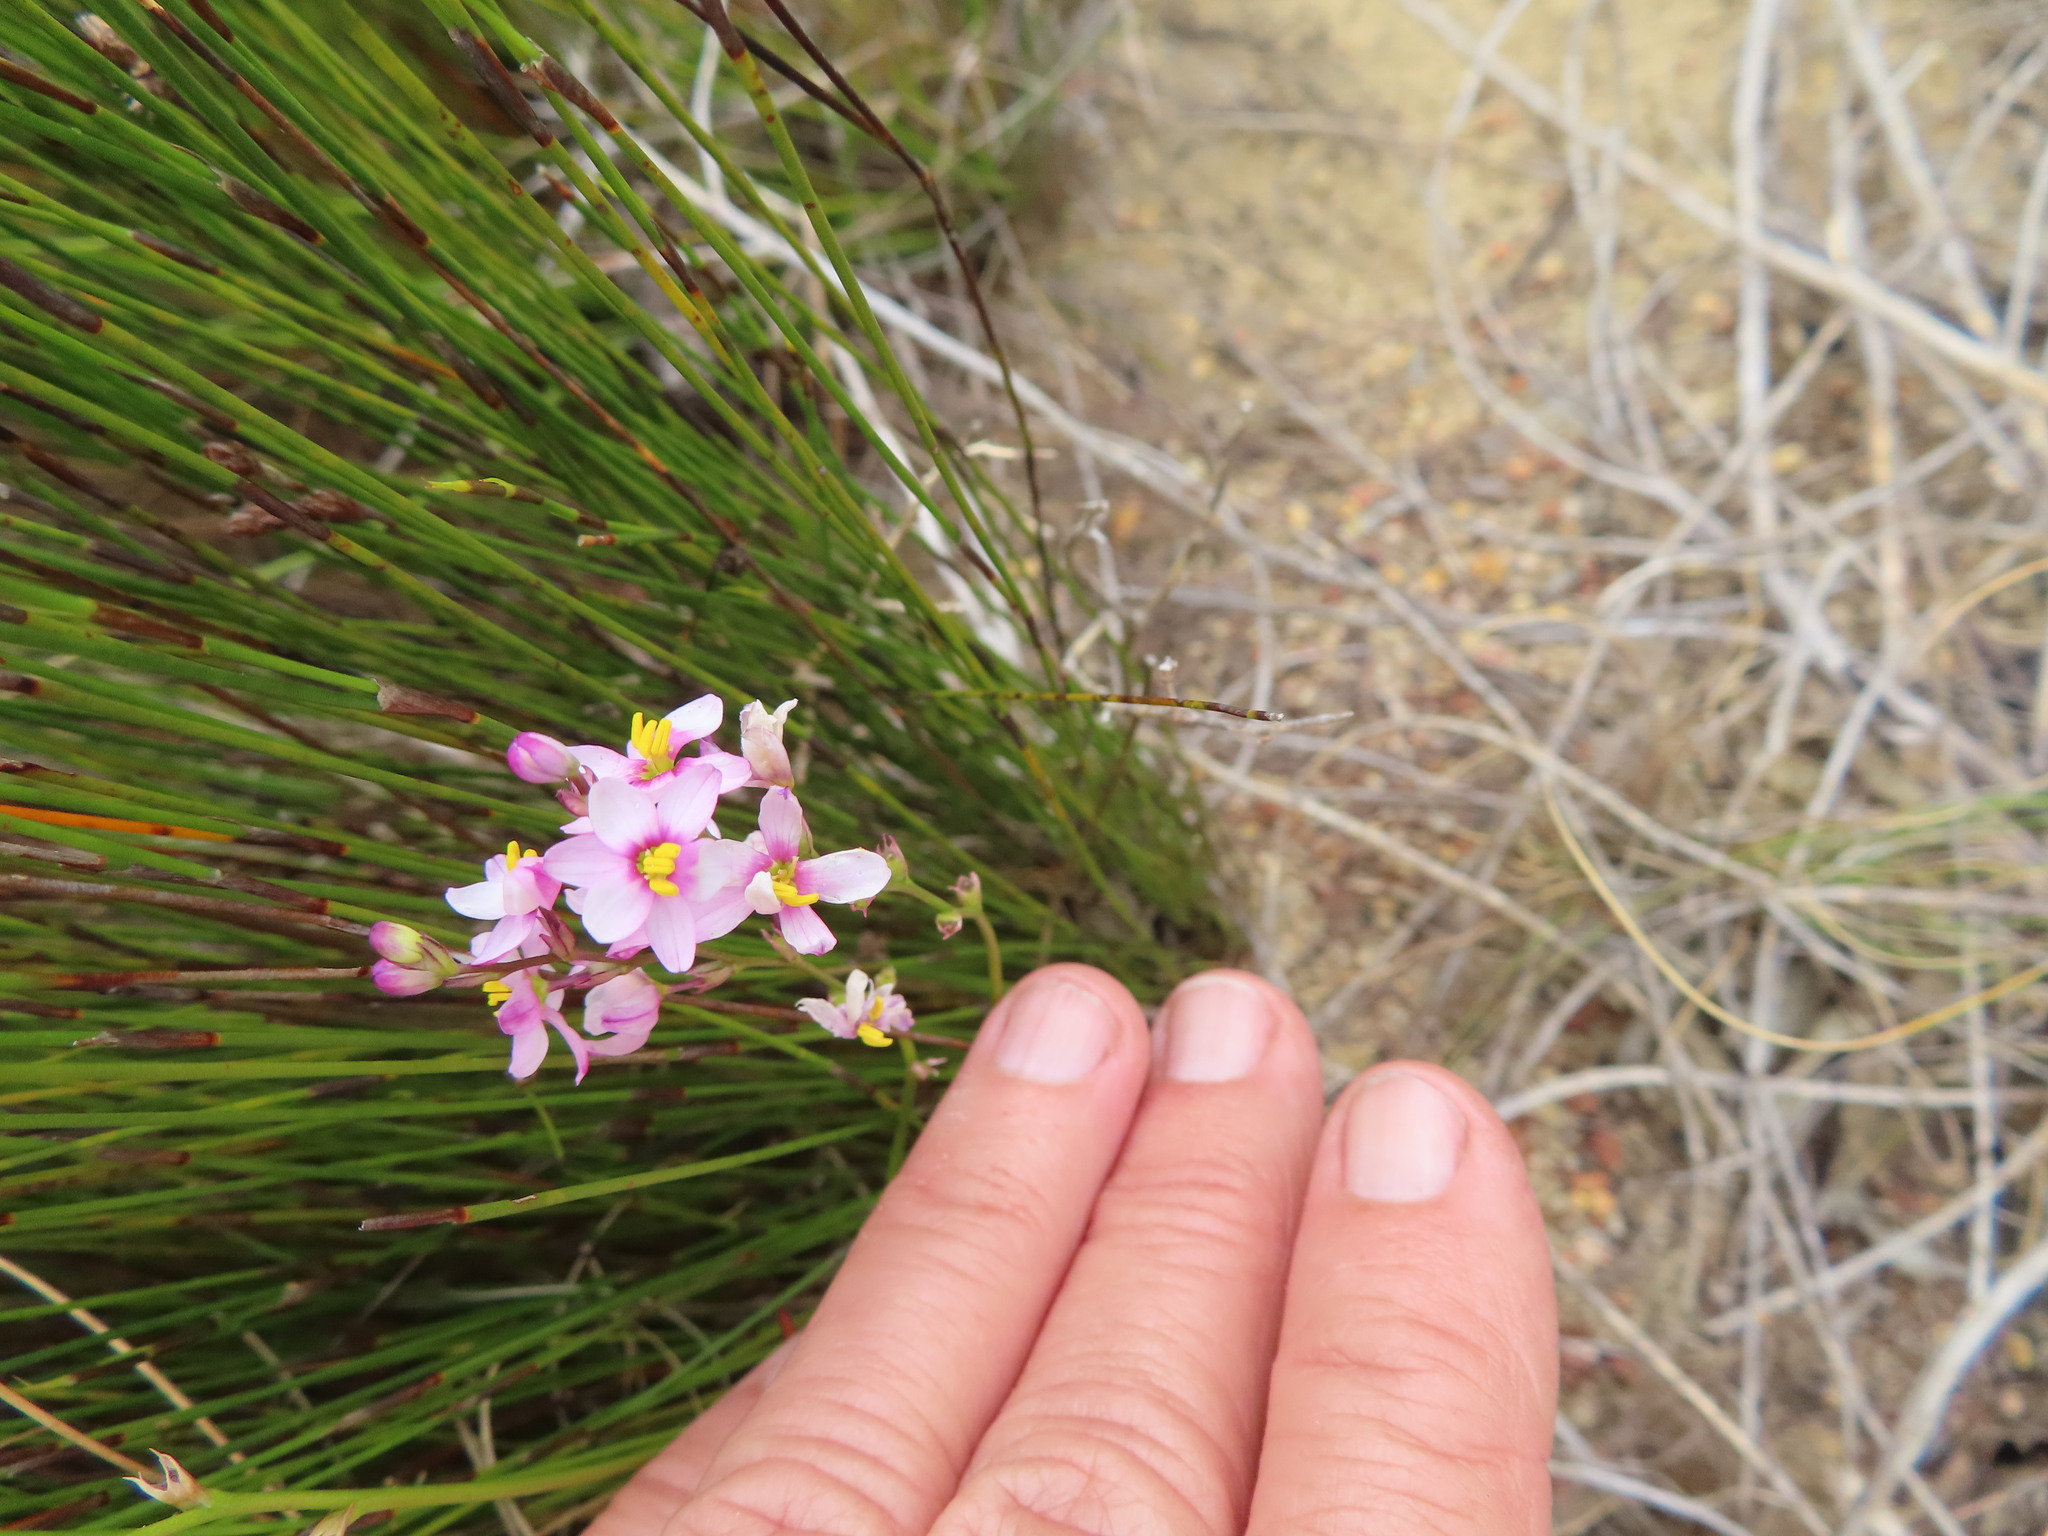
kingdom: Plantae
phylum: Tracheophyta
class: Liliopsida
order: Asparagales
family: Iridaceae
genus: Ixia
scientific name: Ixia scillaris
